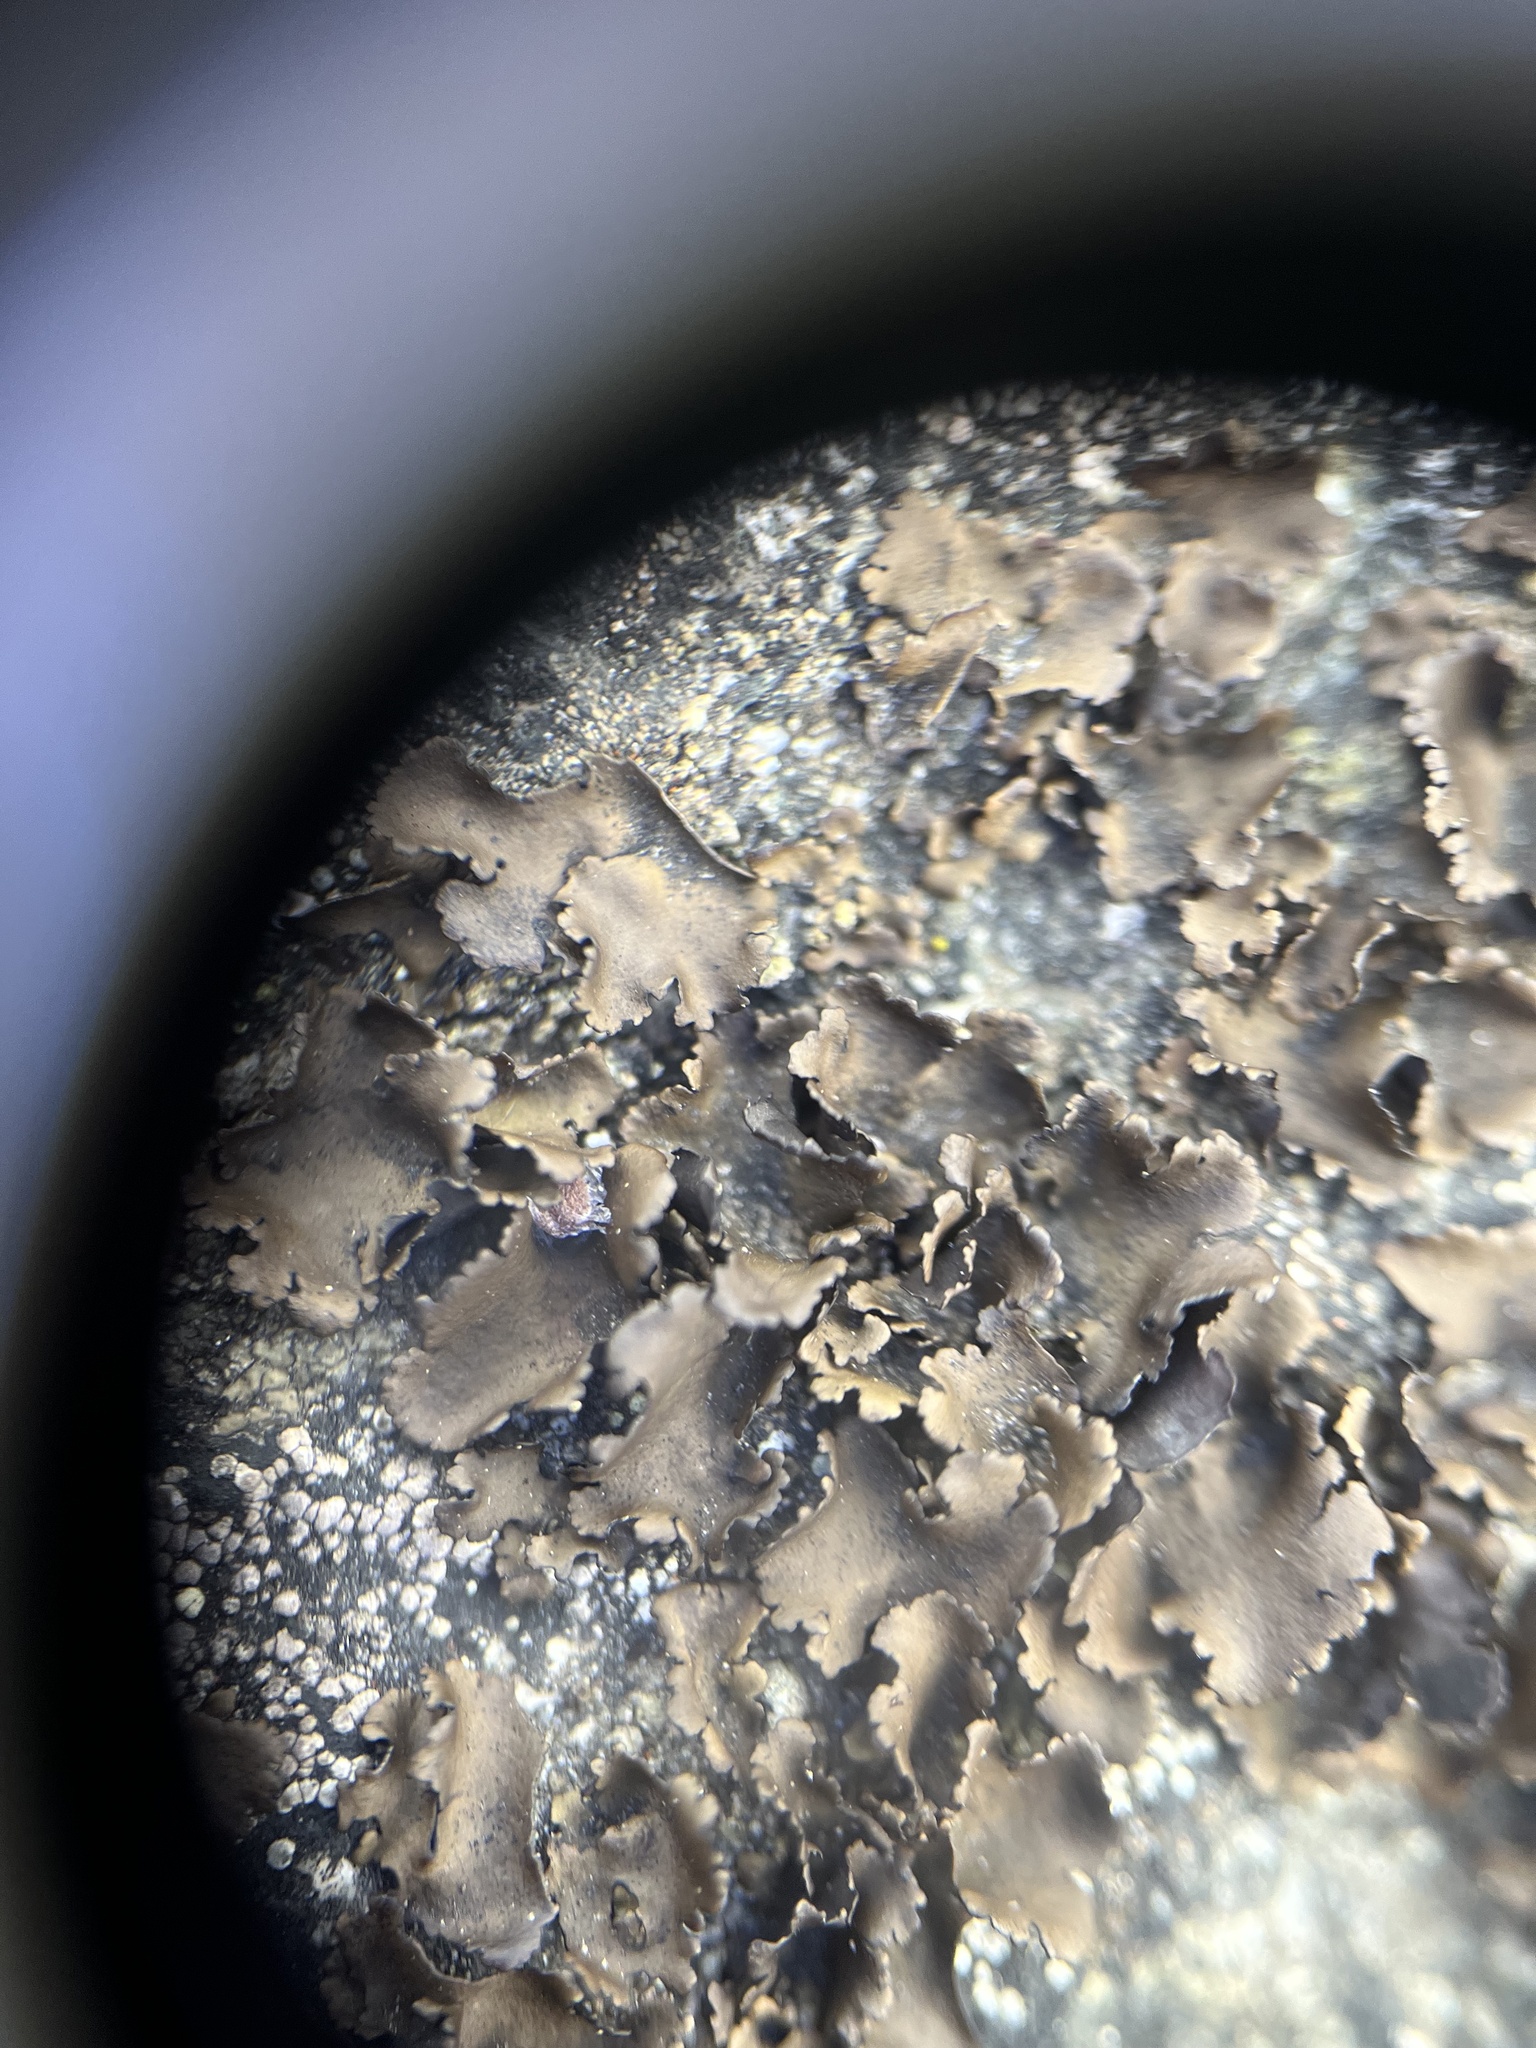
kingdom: Fungi
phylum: Ascomycota
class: Lecanoromycetes
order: Umbilicariales
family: Umbilicariaceae
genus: Umbilicaria
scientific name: Umbilicaria polyphylla
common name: Petalled rocktripe lichen
